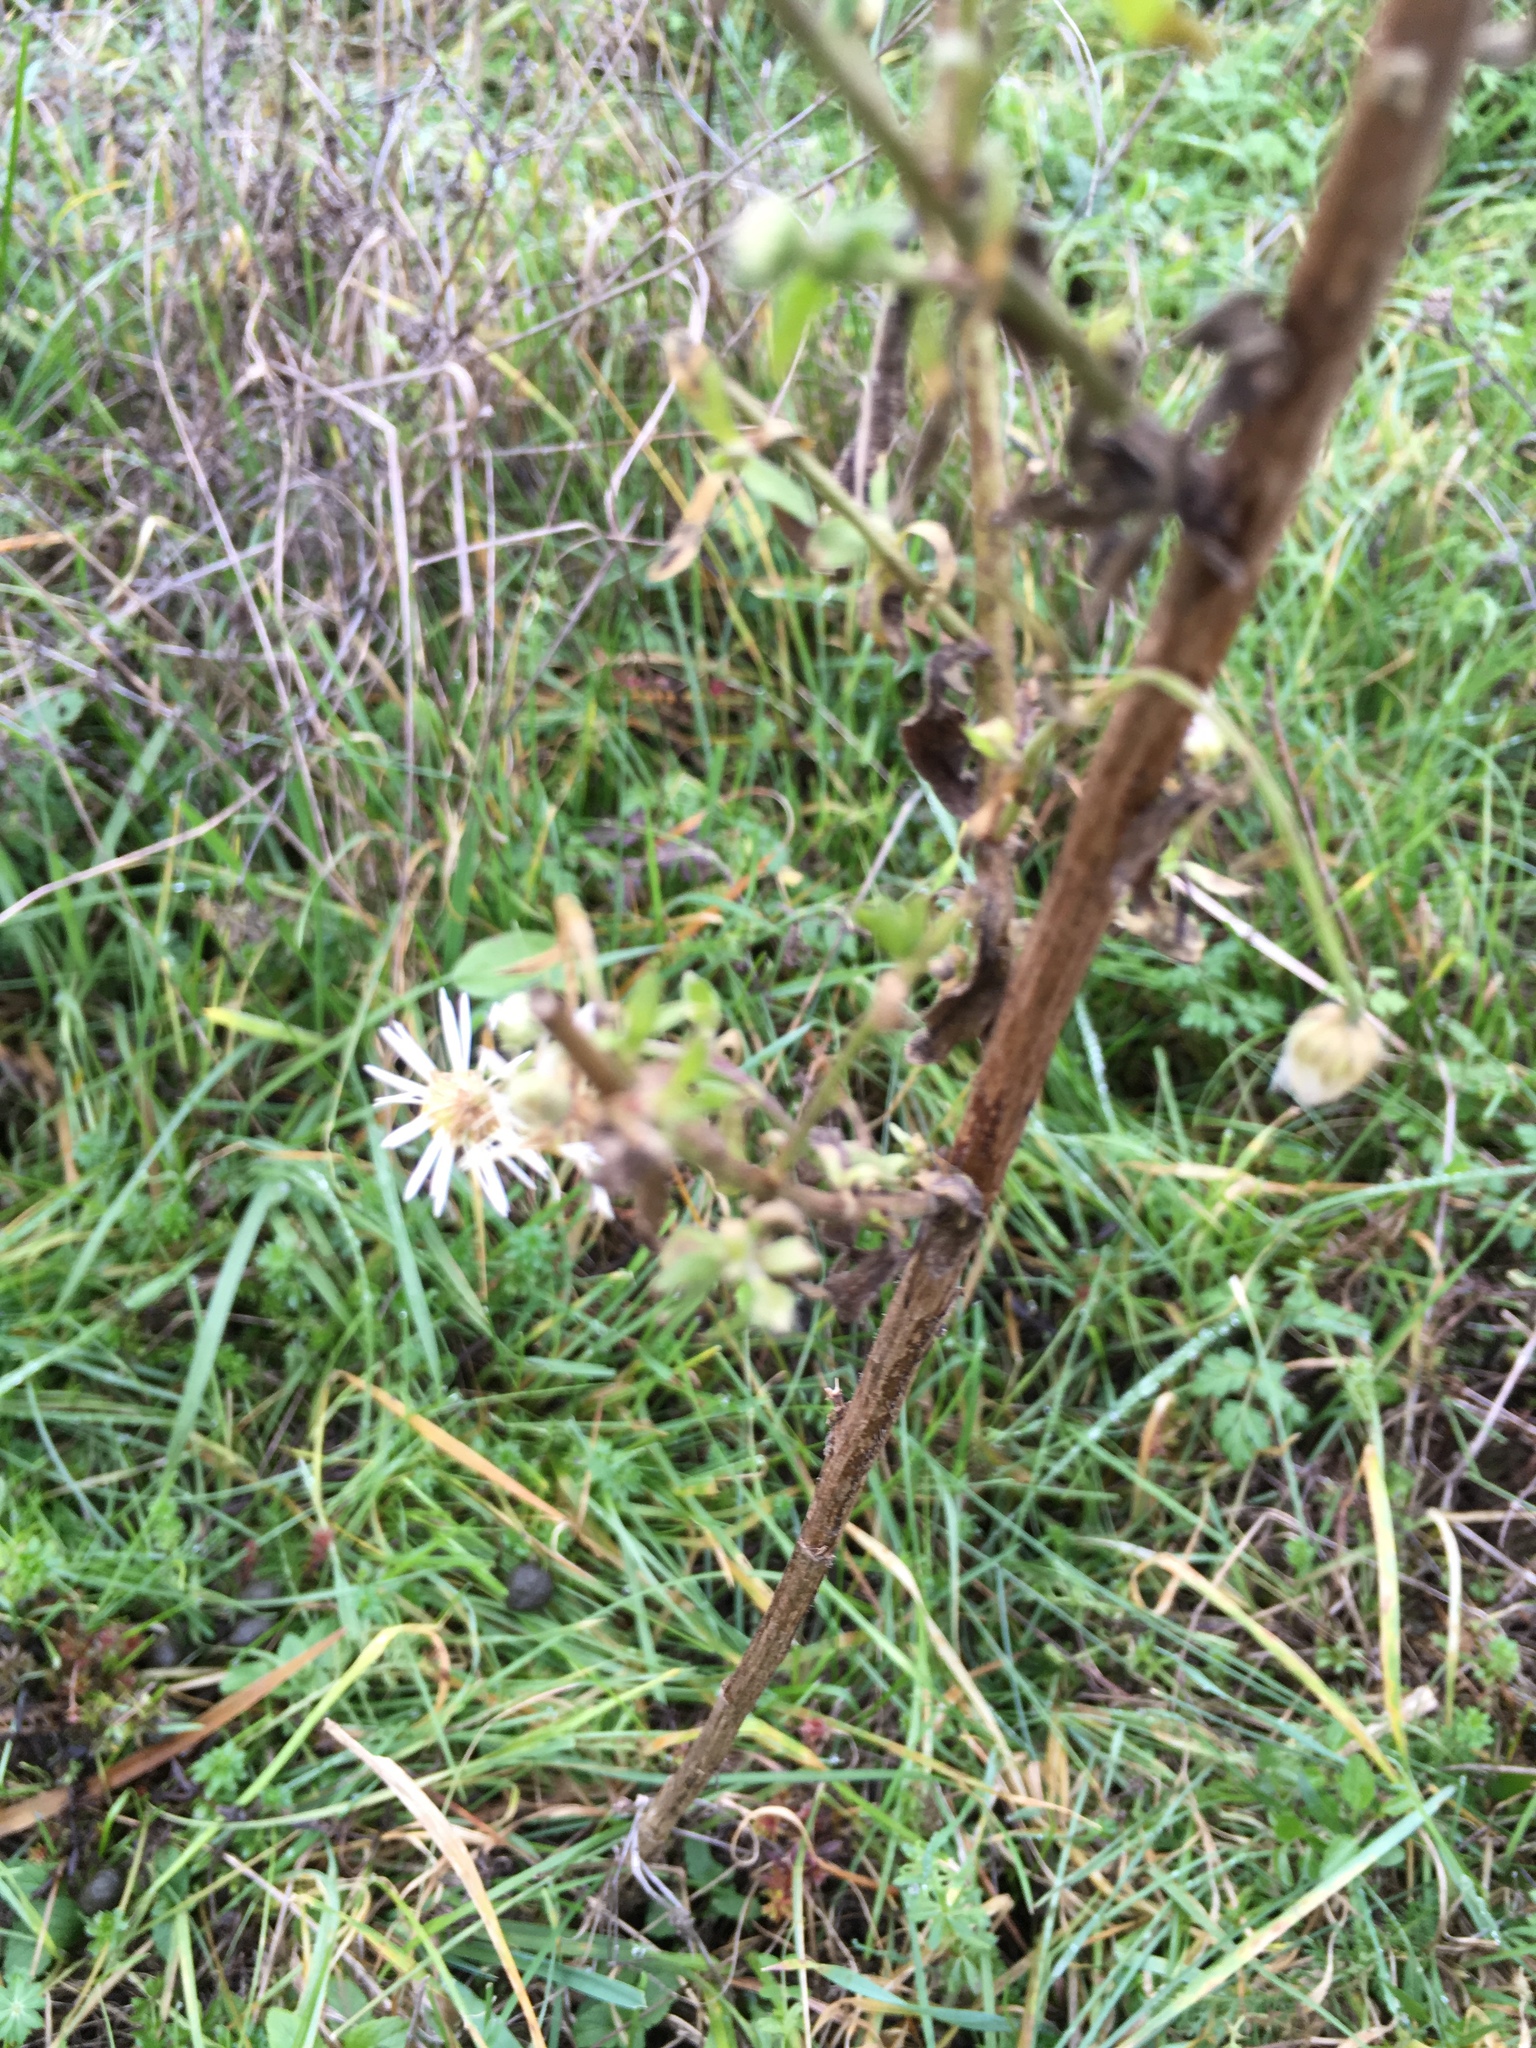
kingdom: Plantae
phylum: Tracheophyta
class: Magnoliopsida
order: Asterales
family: Asteraceae
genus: Erigeron
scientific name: Erigeron annuus
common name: Tall fleabane
